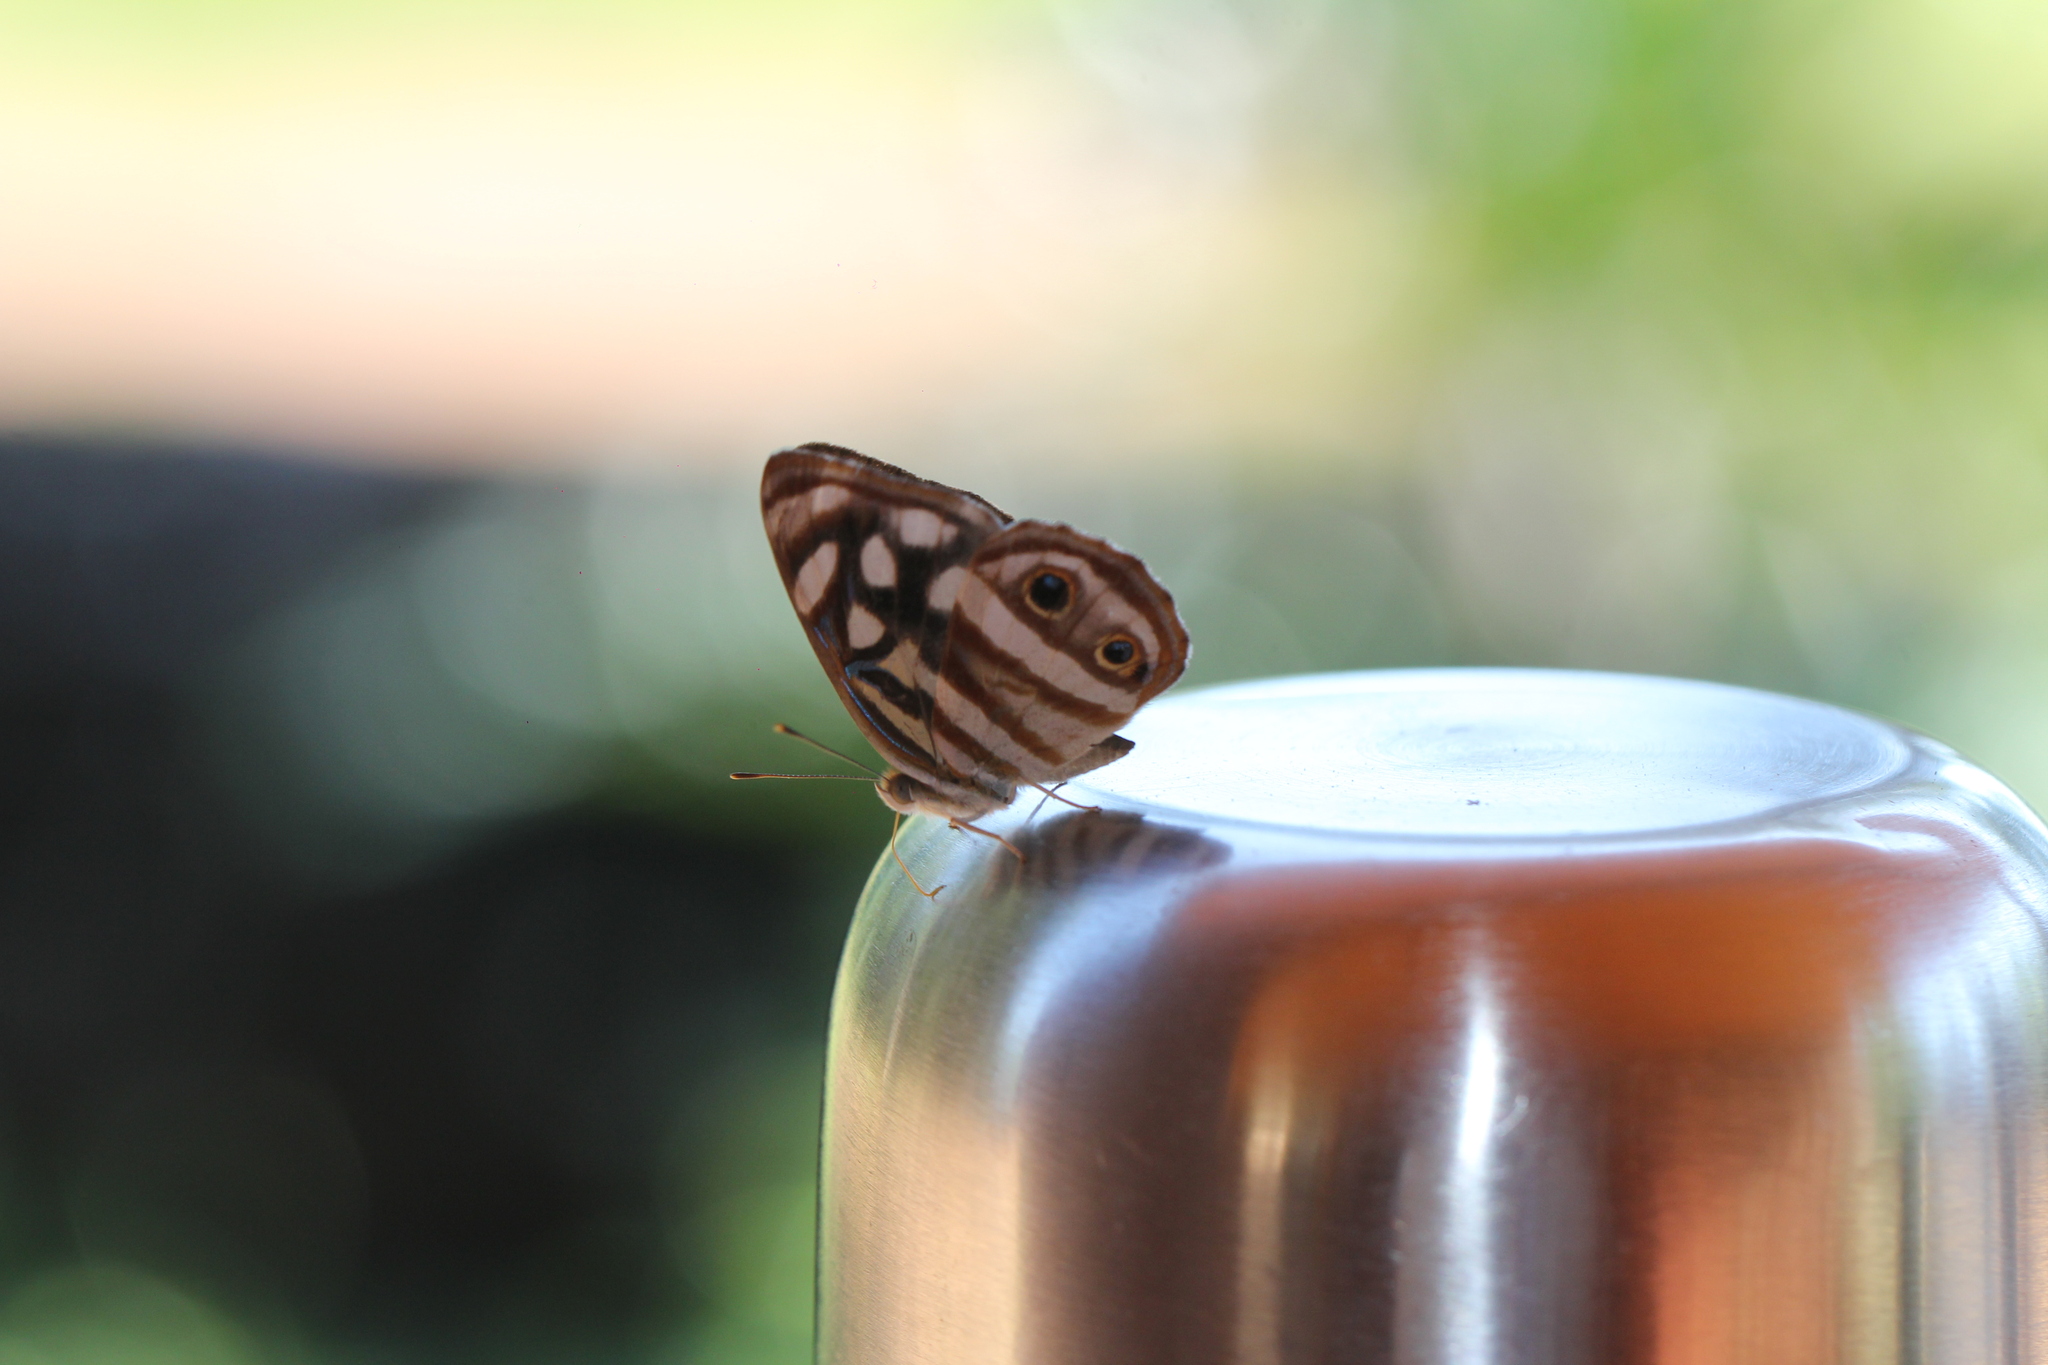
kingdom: Animalia
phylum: Arthropoda
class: Insecta
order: Lepidoptera
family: Nymphalidae
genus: Dynamine
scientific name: Dynamine mylitta
